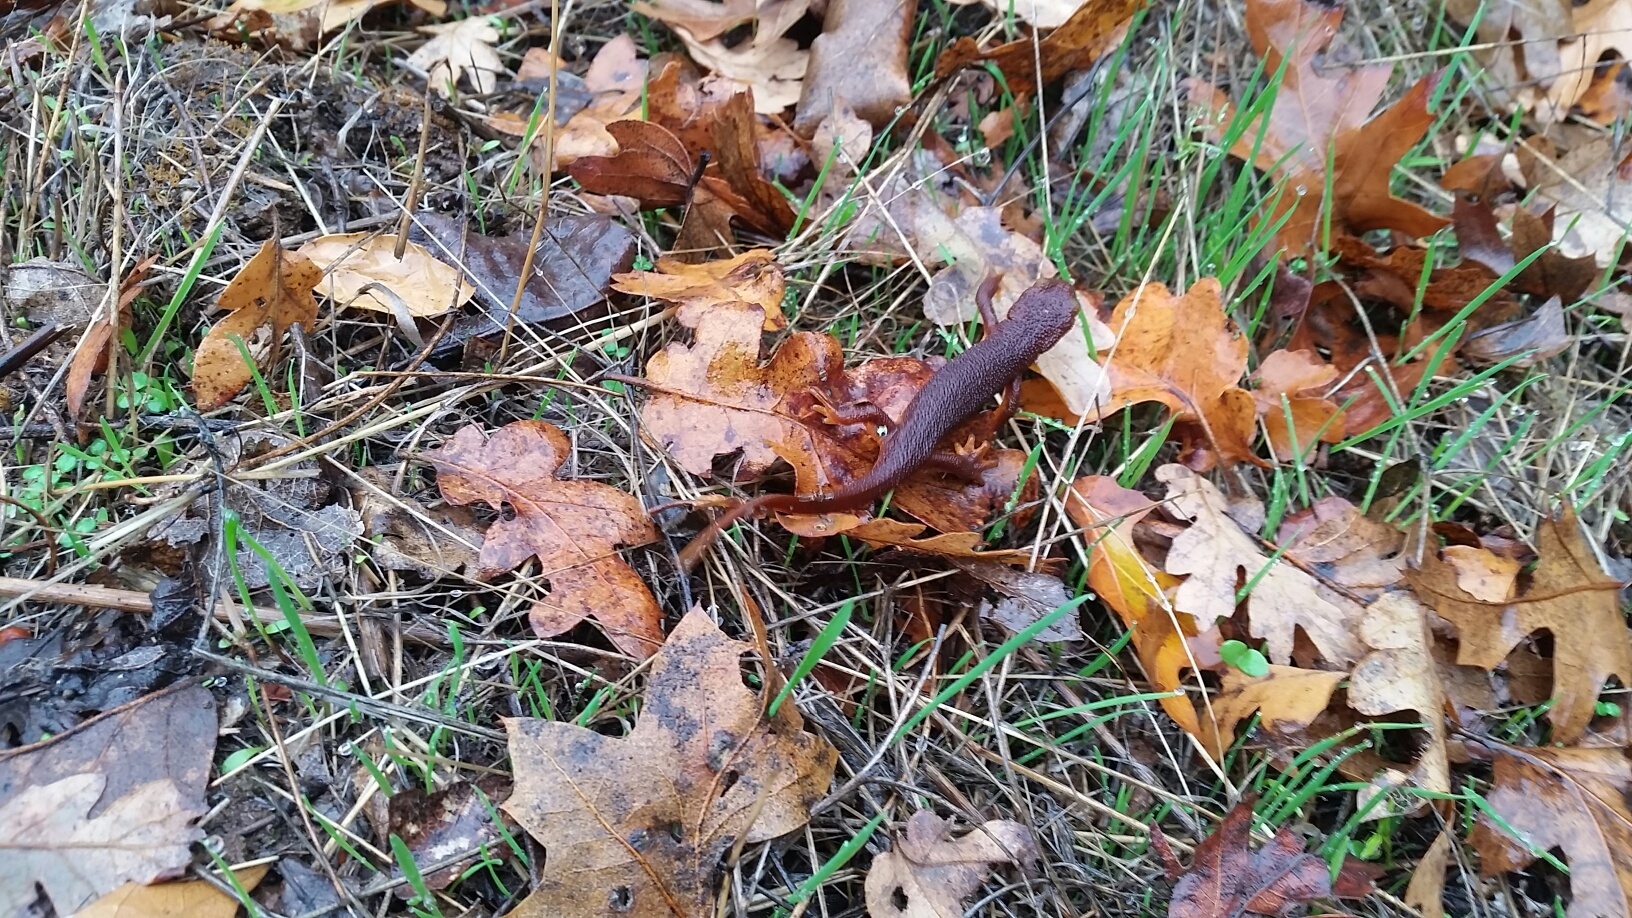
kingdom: Animalia
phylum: Chordata
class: Amphibia
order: Caudata
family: Salamandridae
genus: Taricha
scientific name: Taricha torosa
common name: California newt
